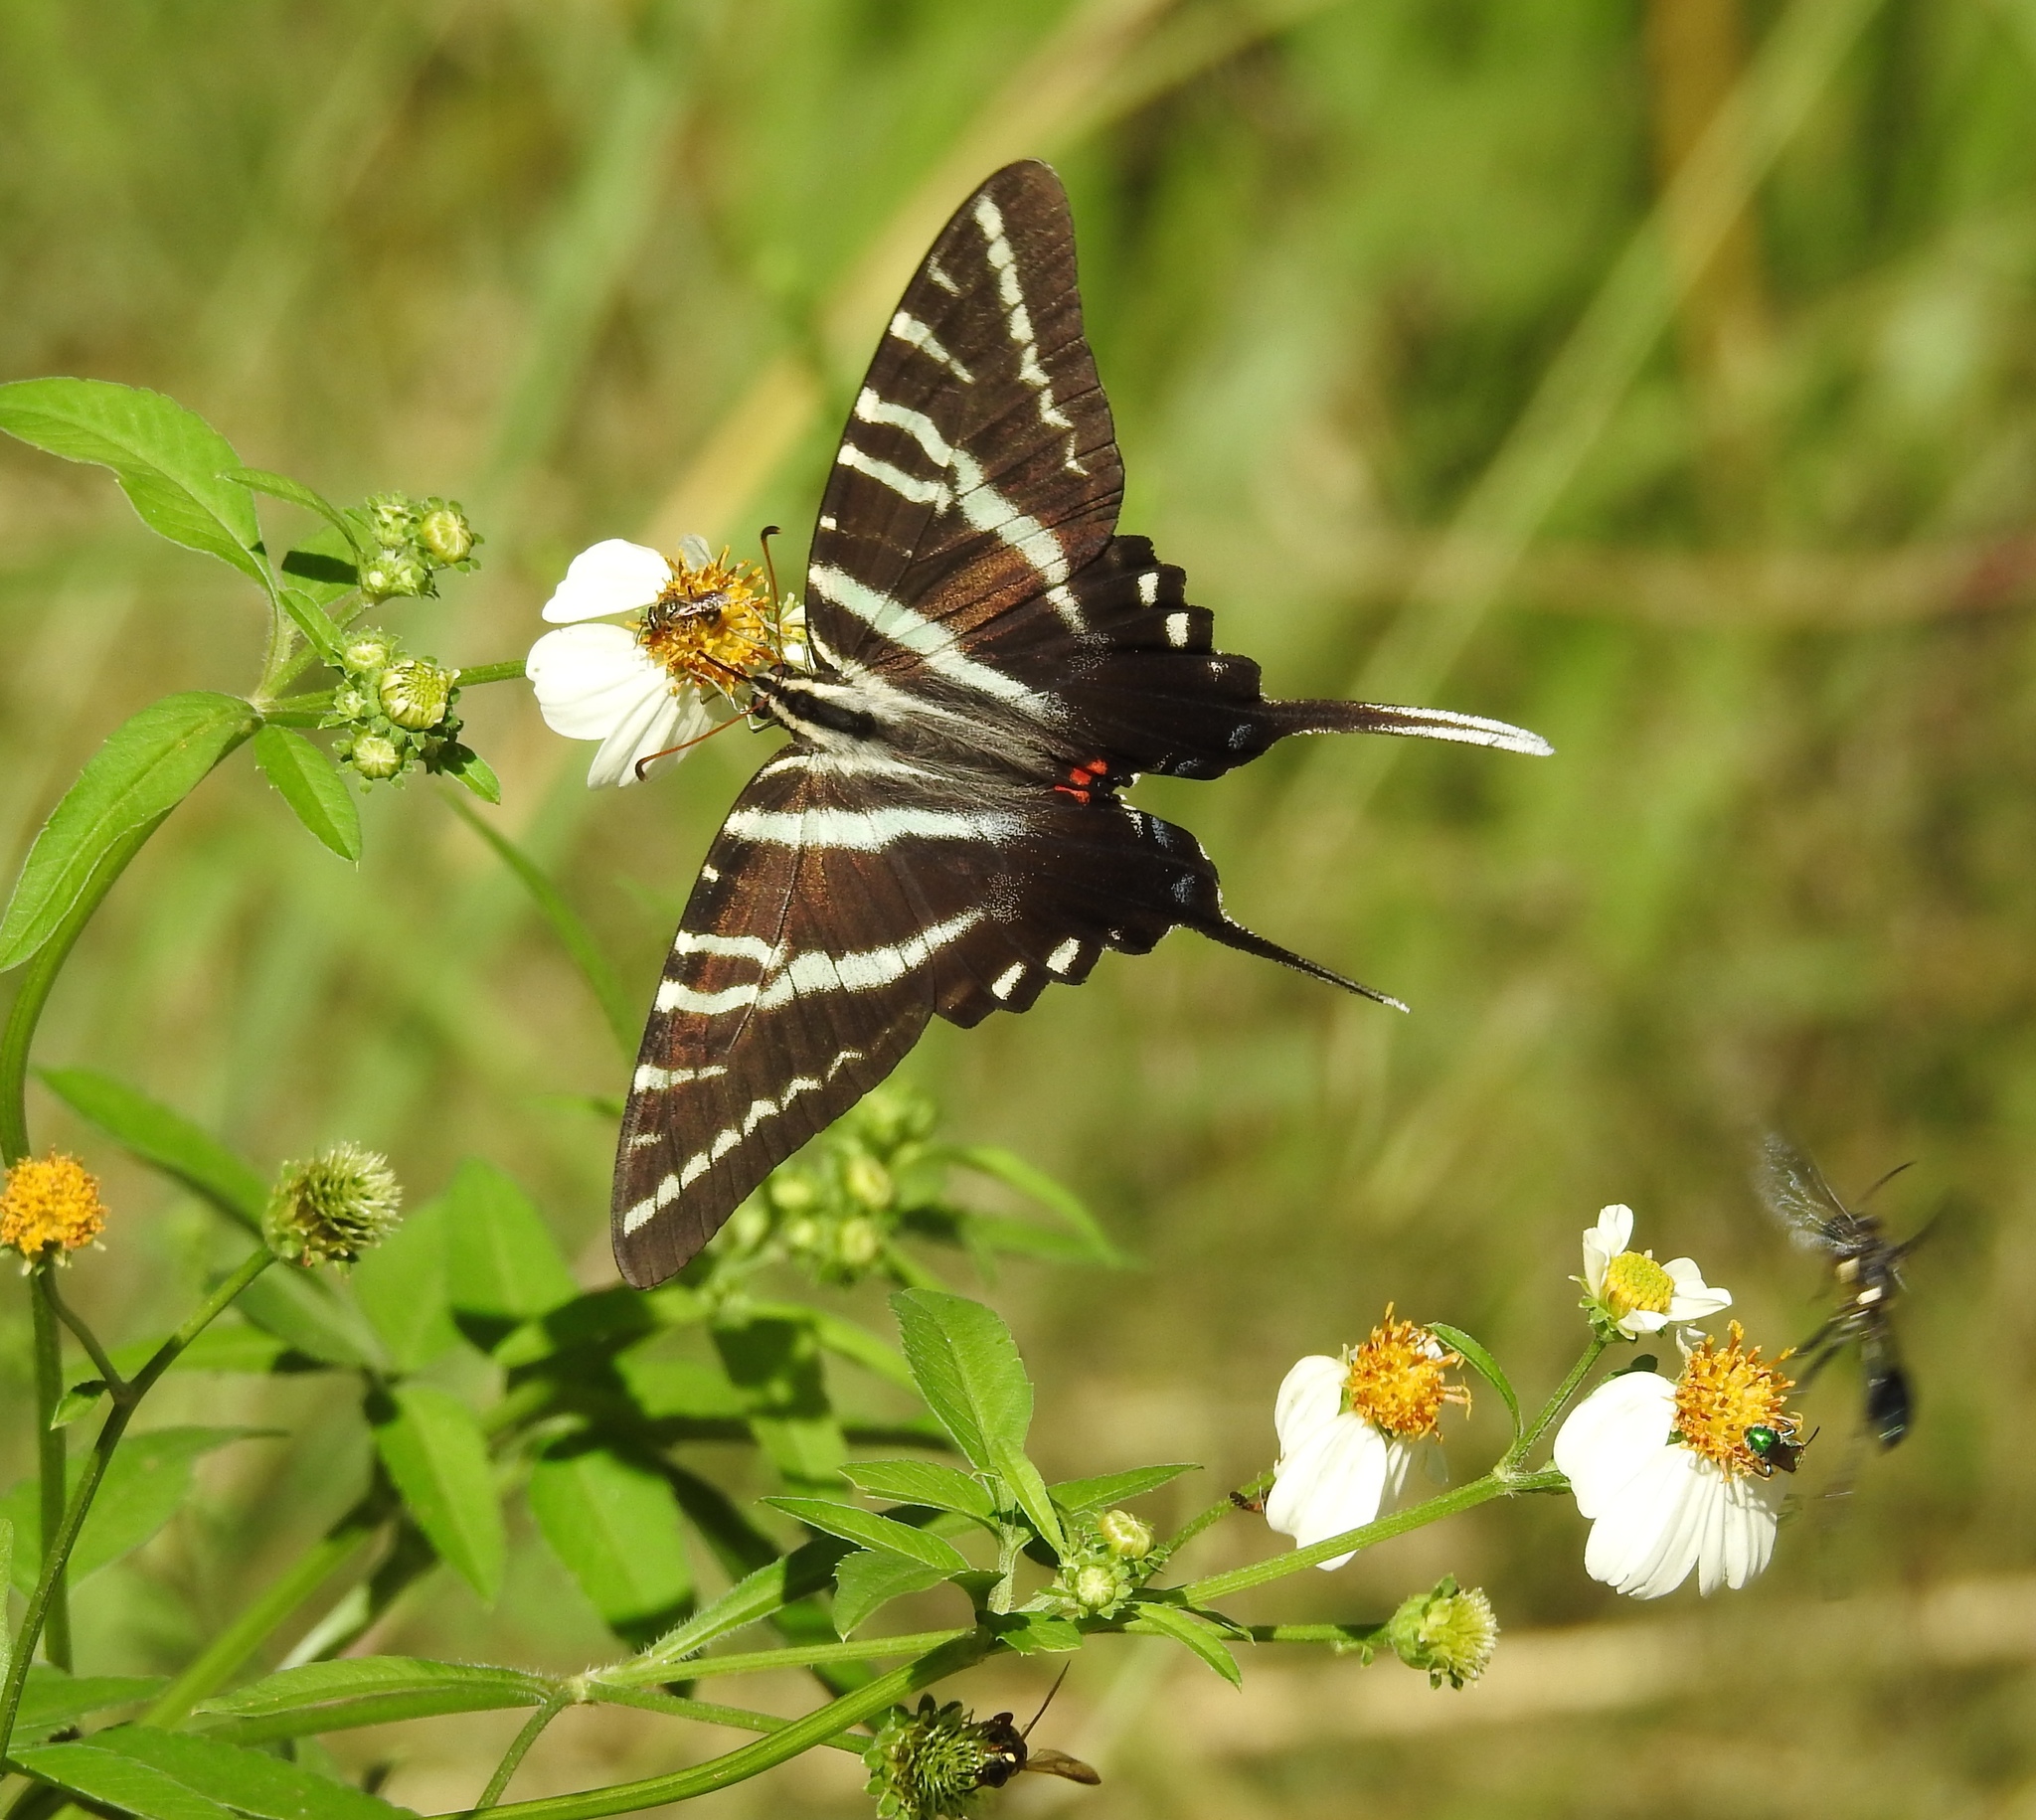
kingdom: Animalia
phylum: Arthropoda
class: Insecta
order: Lepidoptera
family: Papilionidae
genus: Protographium
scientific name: Protographium marcellus
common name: Zebra swallowtail
